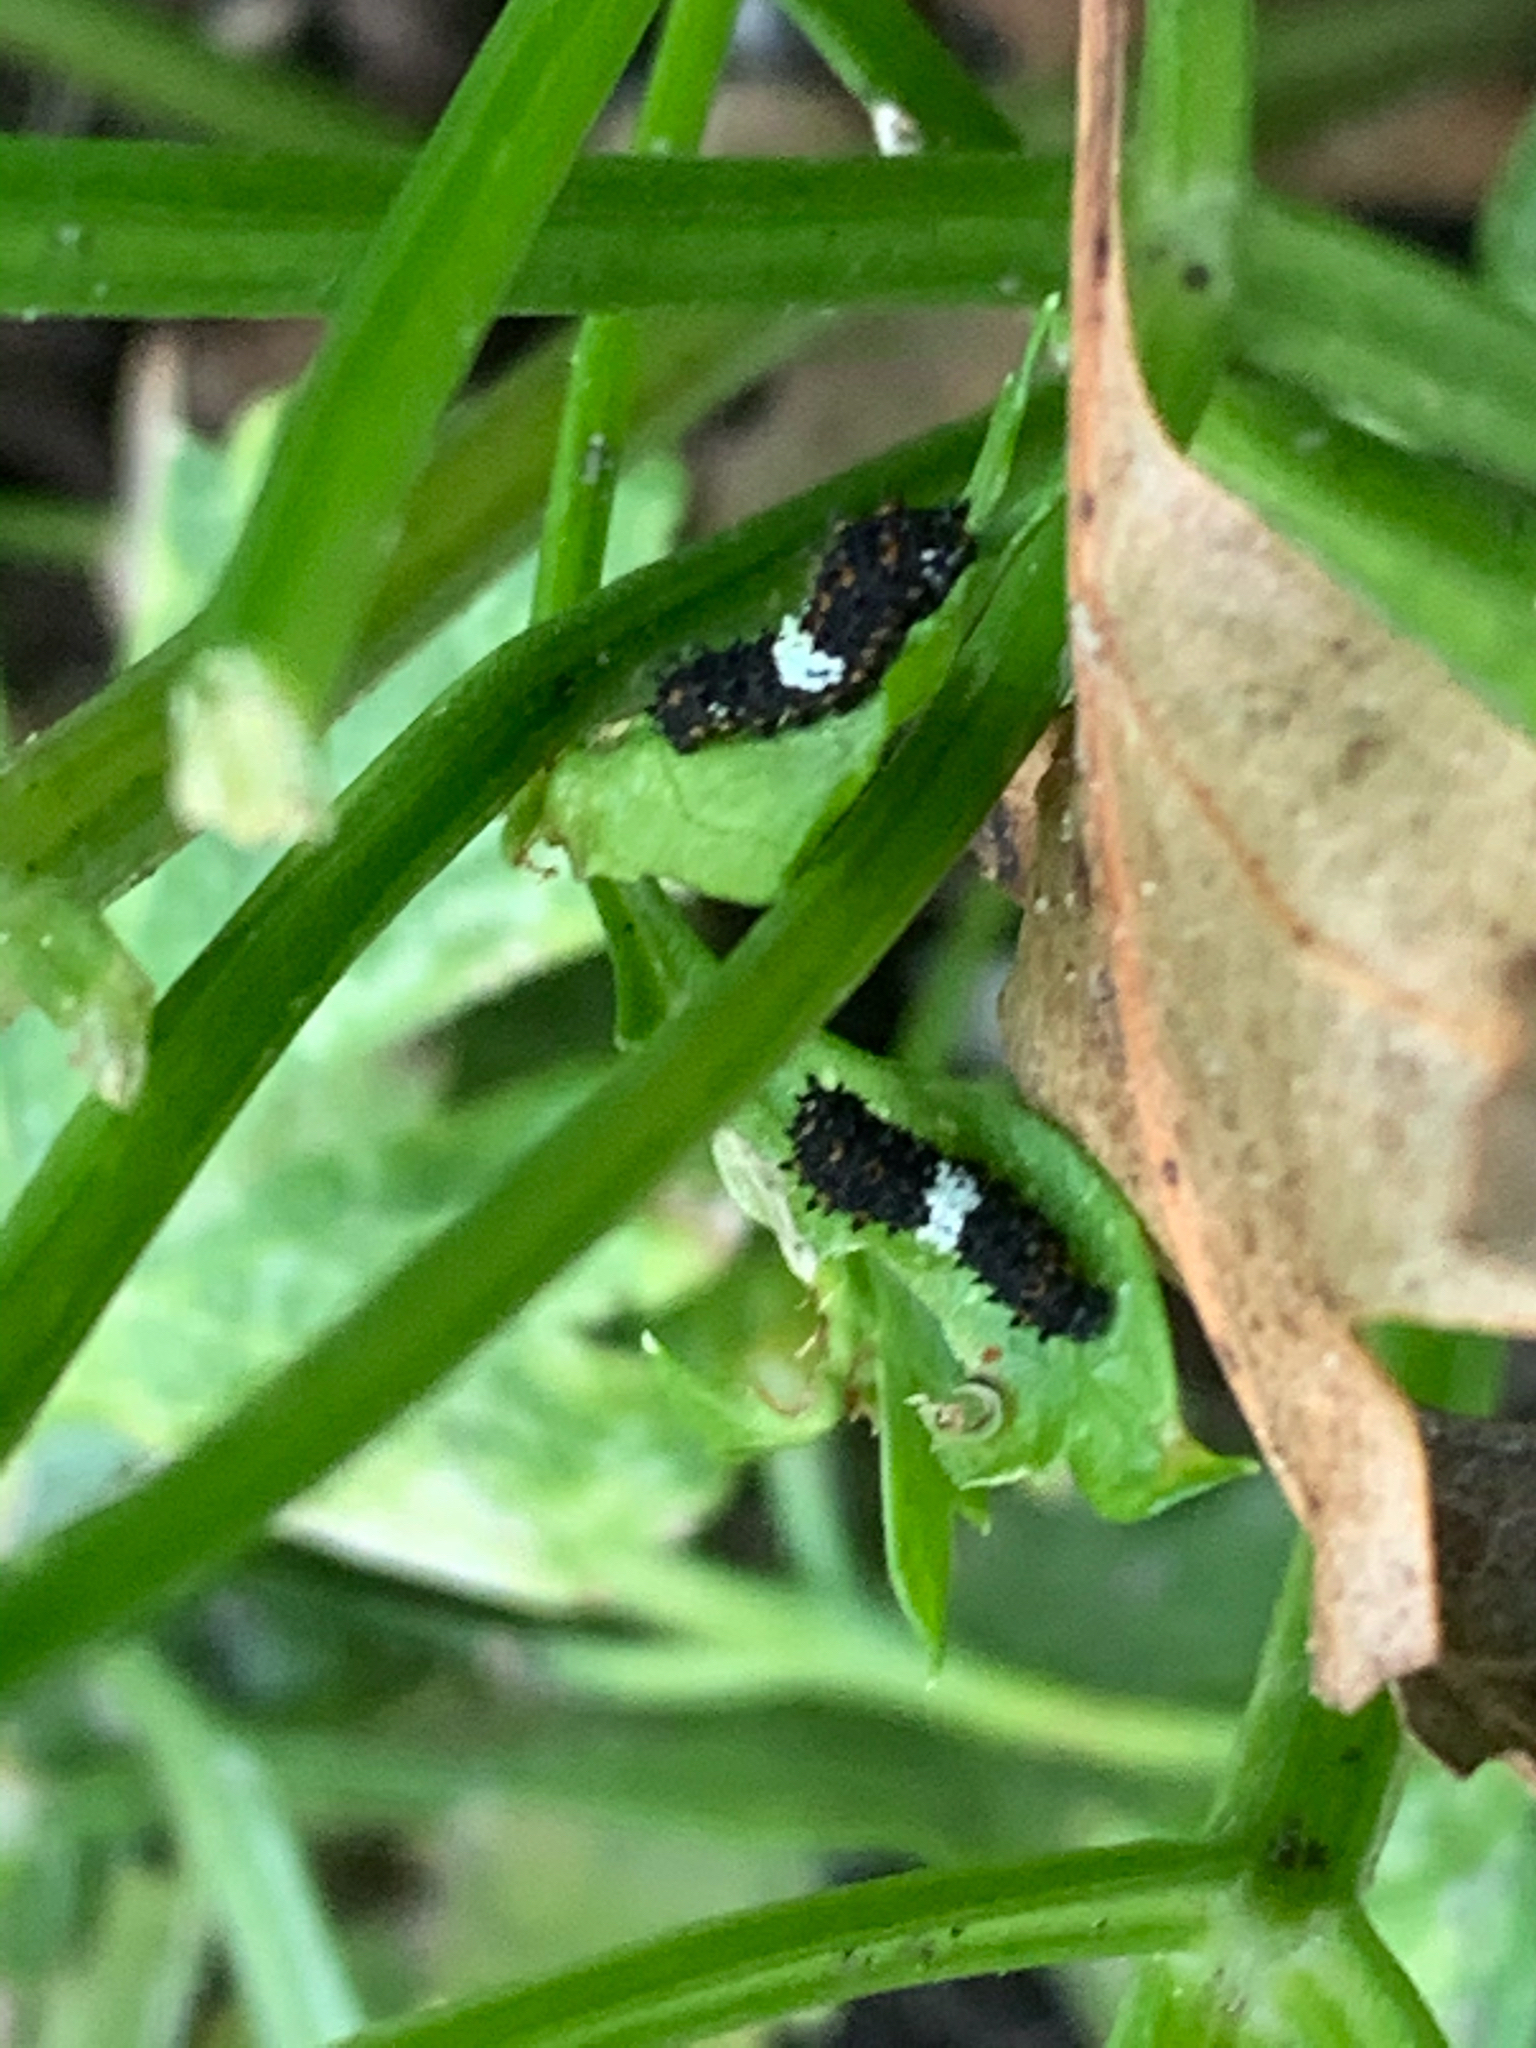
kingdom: Animalia
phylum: Arthropoda
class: Insecta
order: Lepidoptera
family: Papilionidae
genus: Papilio
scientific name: Papilio polyxenes
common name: Black swallowtail
